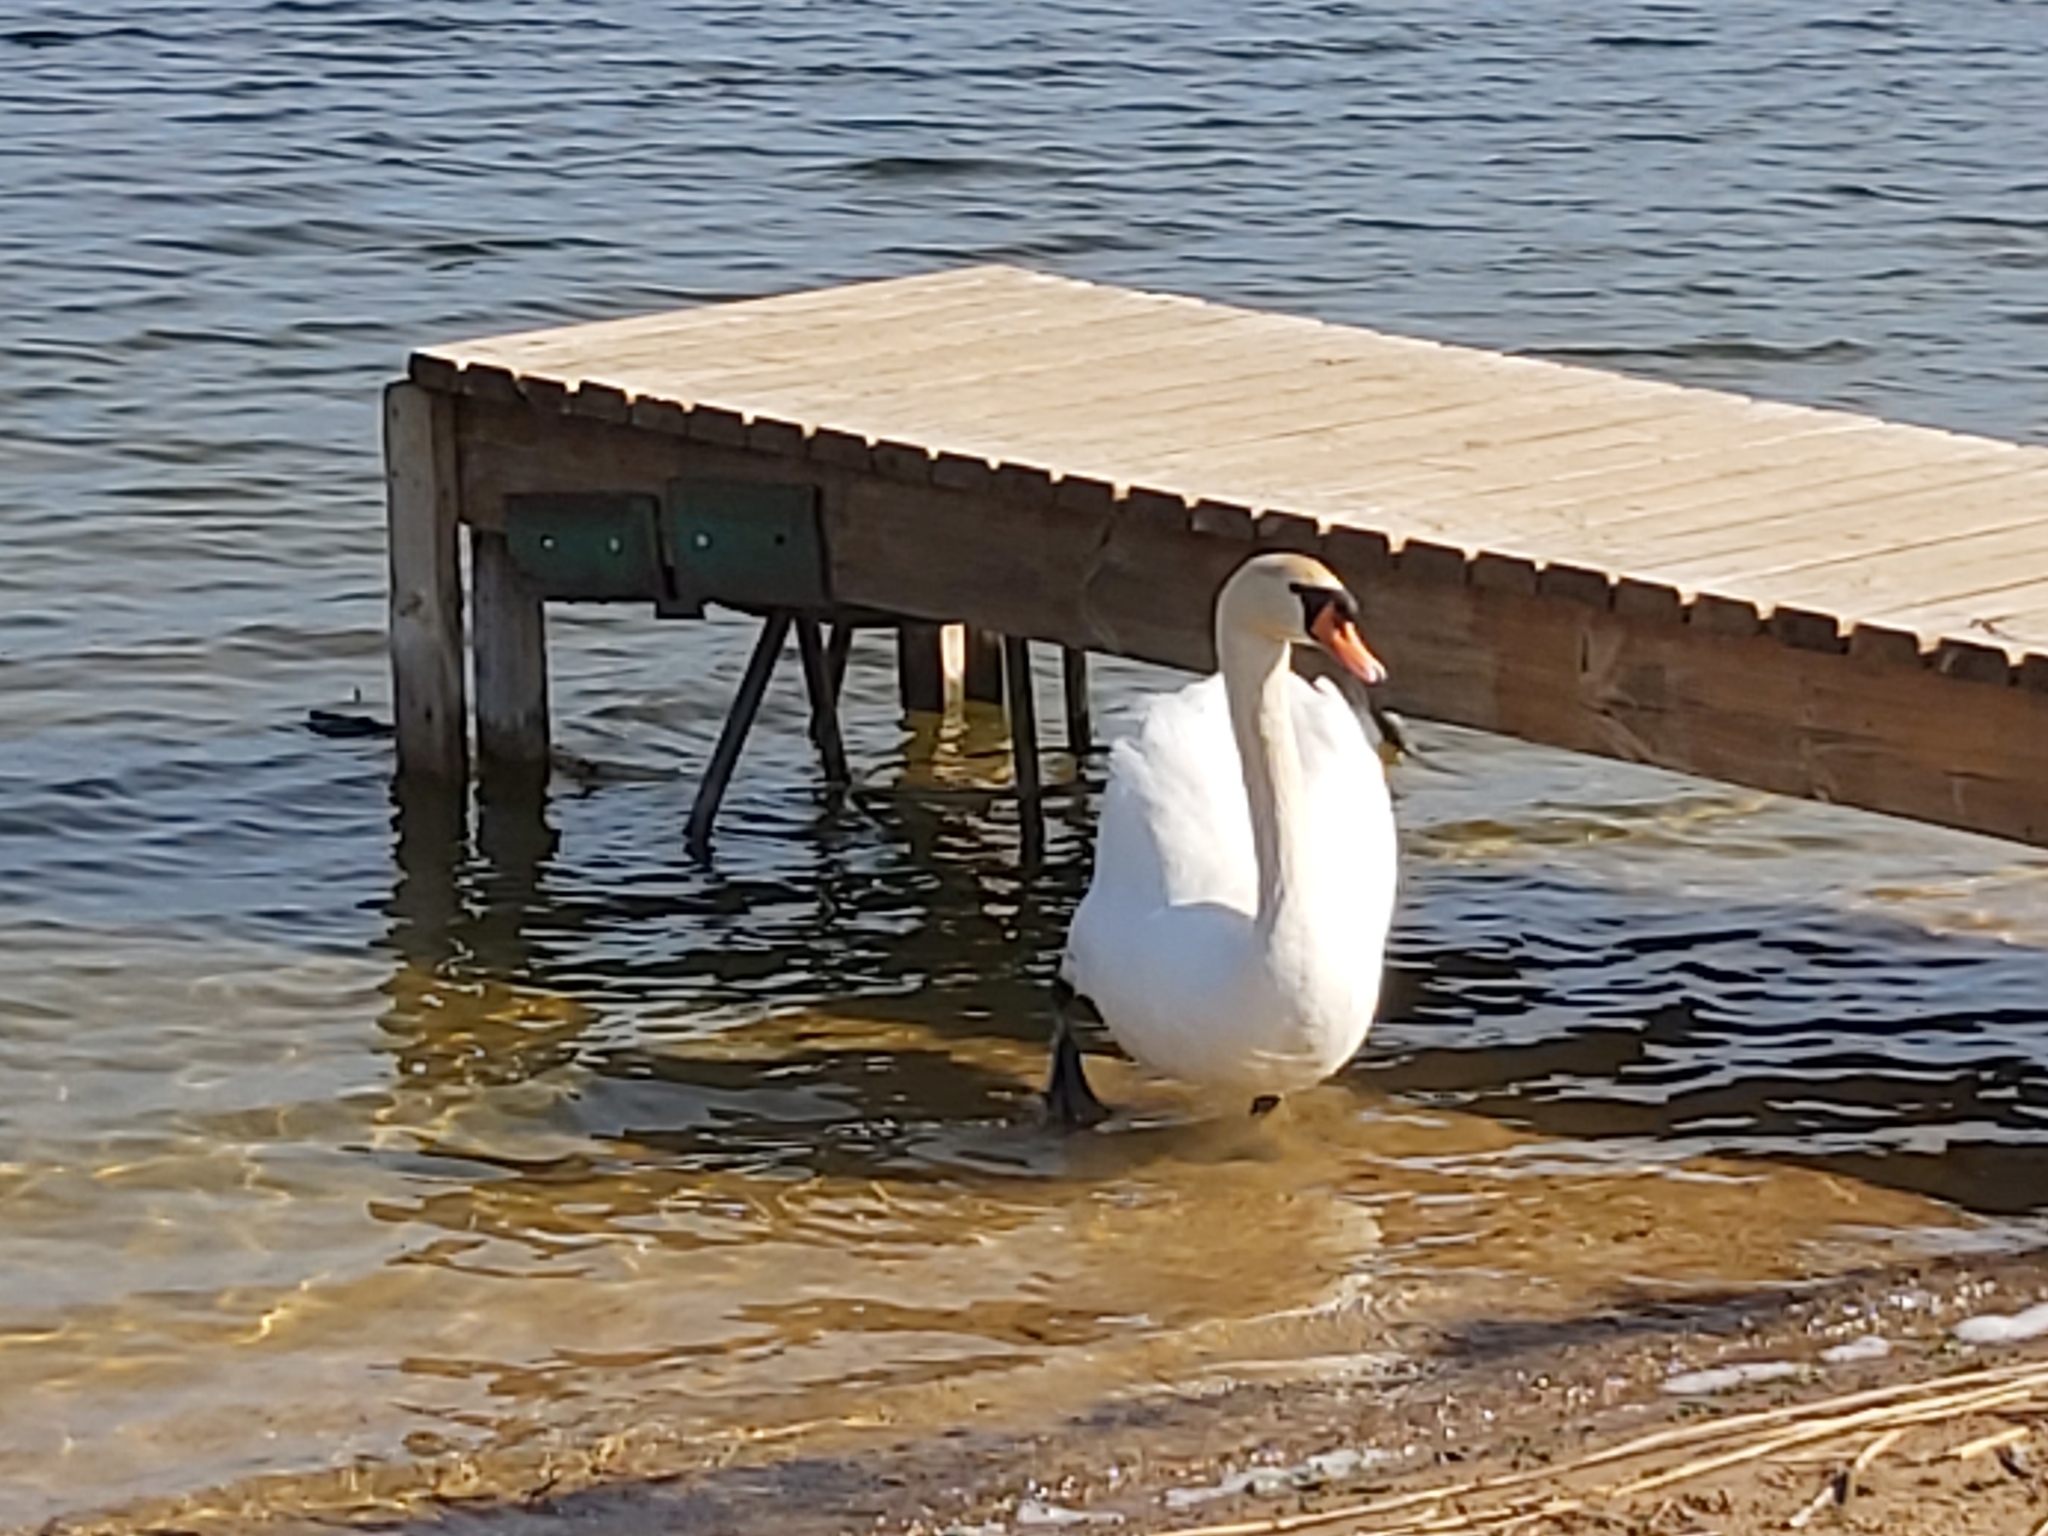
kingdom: Animalia
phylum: Chordata
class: Aves
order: Anseriformes
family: Anatidae
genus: Cygnus
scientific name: Cygnus olor
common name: Mute swan
